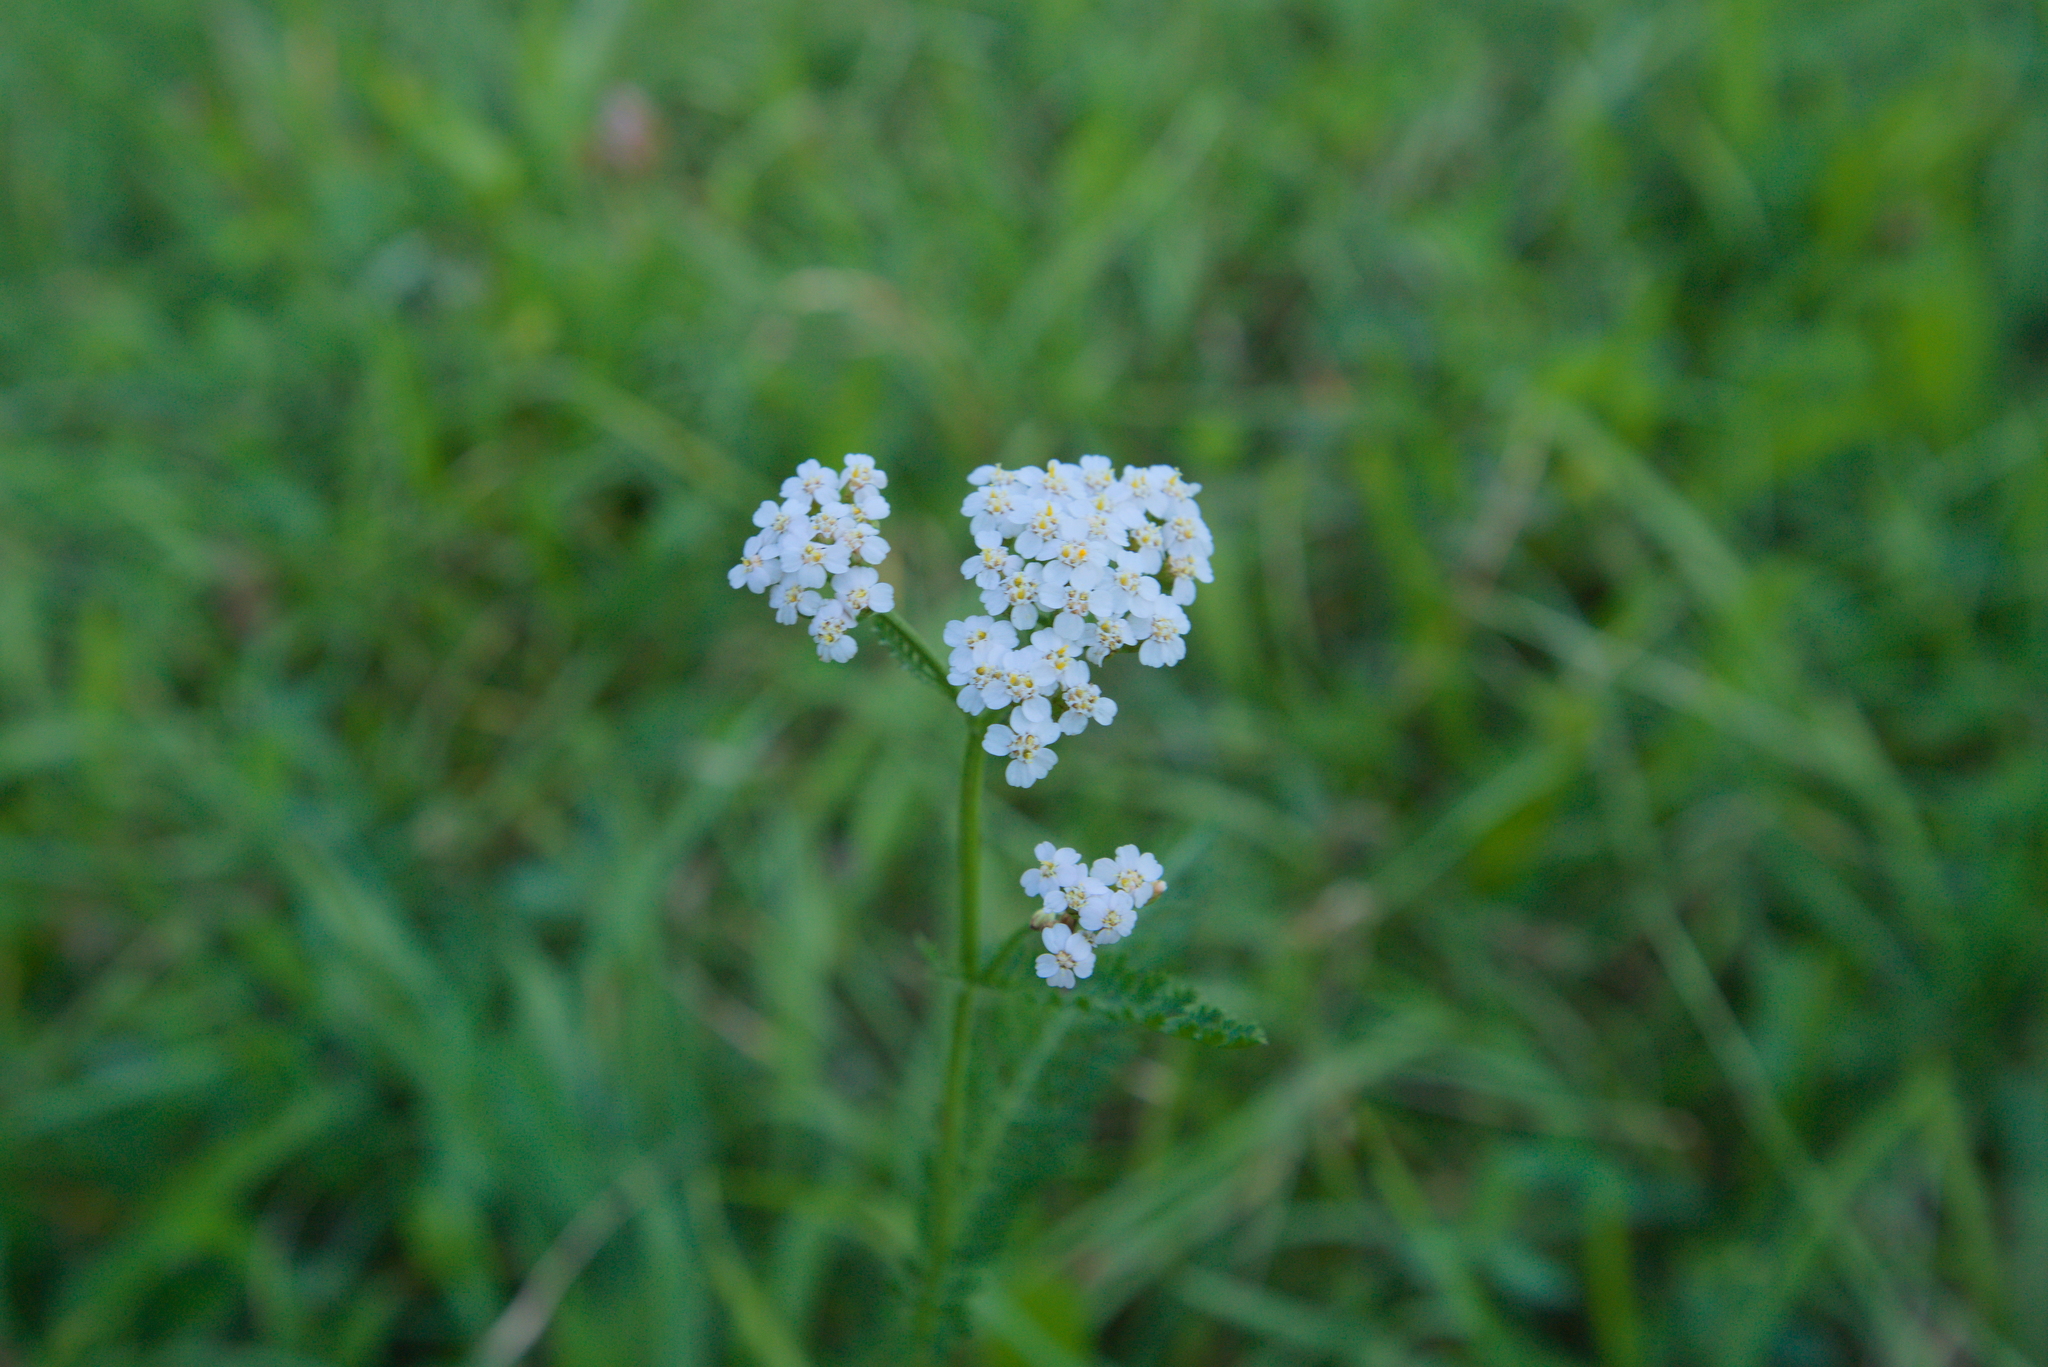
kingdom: Plantae
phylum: Tracheophyta
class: Magnoliopsida
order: Asterales
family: Asteraceae
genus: Achillea
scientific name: Achillea millefolium
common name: Yarrow
